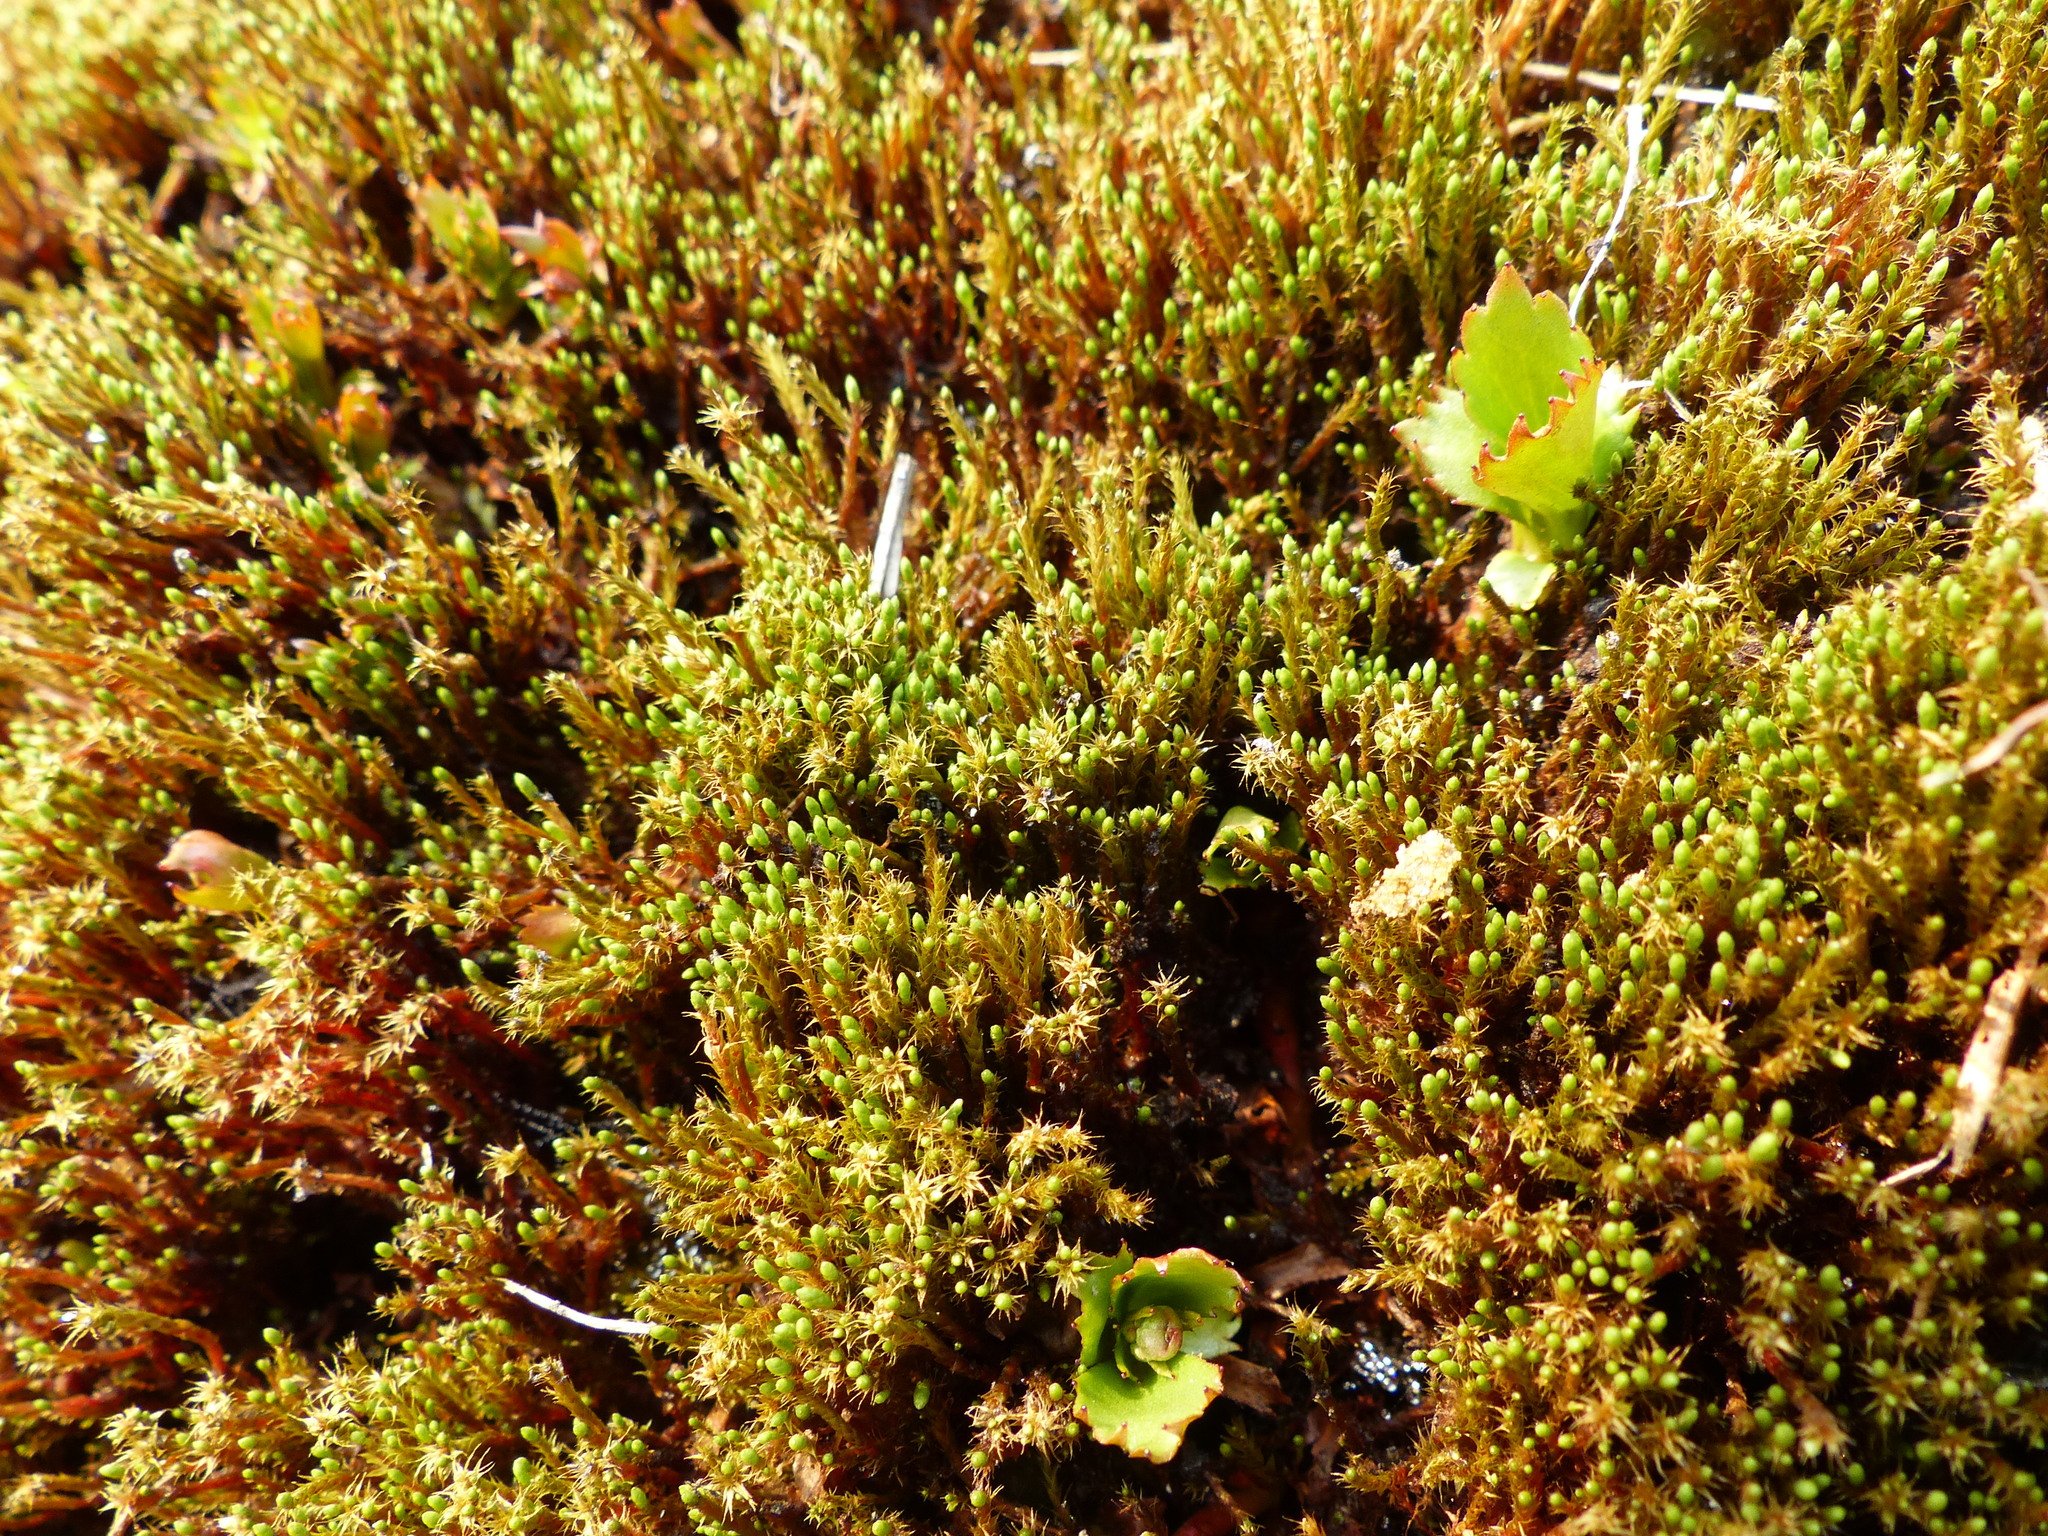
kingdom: Plantae
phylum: Bryophyta
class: Bryopsida
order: Bartramiales
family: Bartramiaceae
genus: Philonotis
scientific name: Philonotis fontana
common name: Fountain apple-moss
